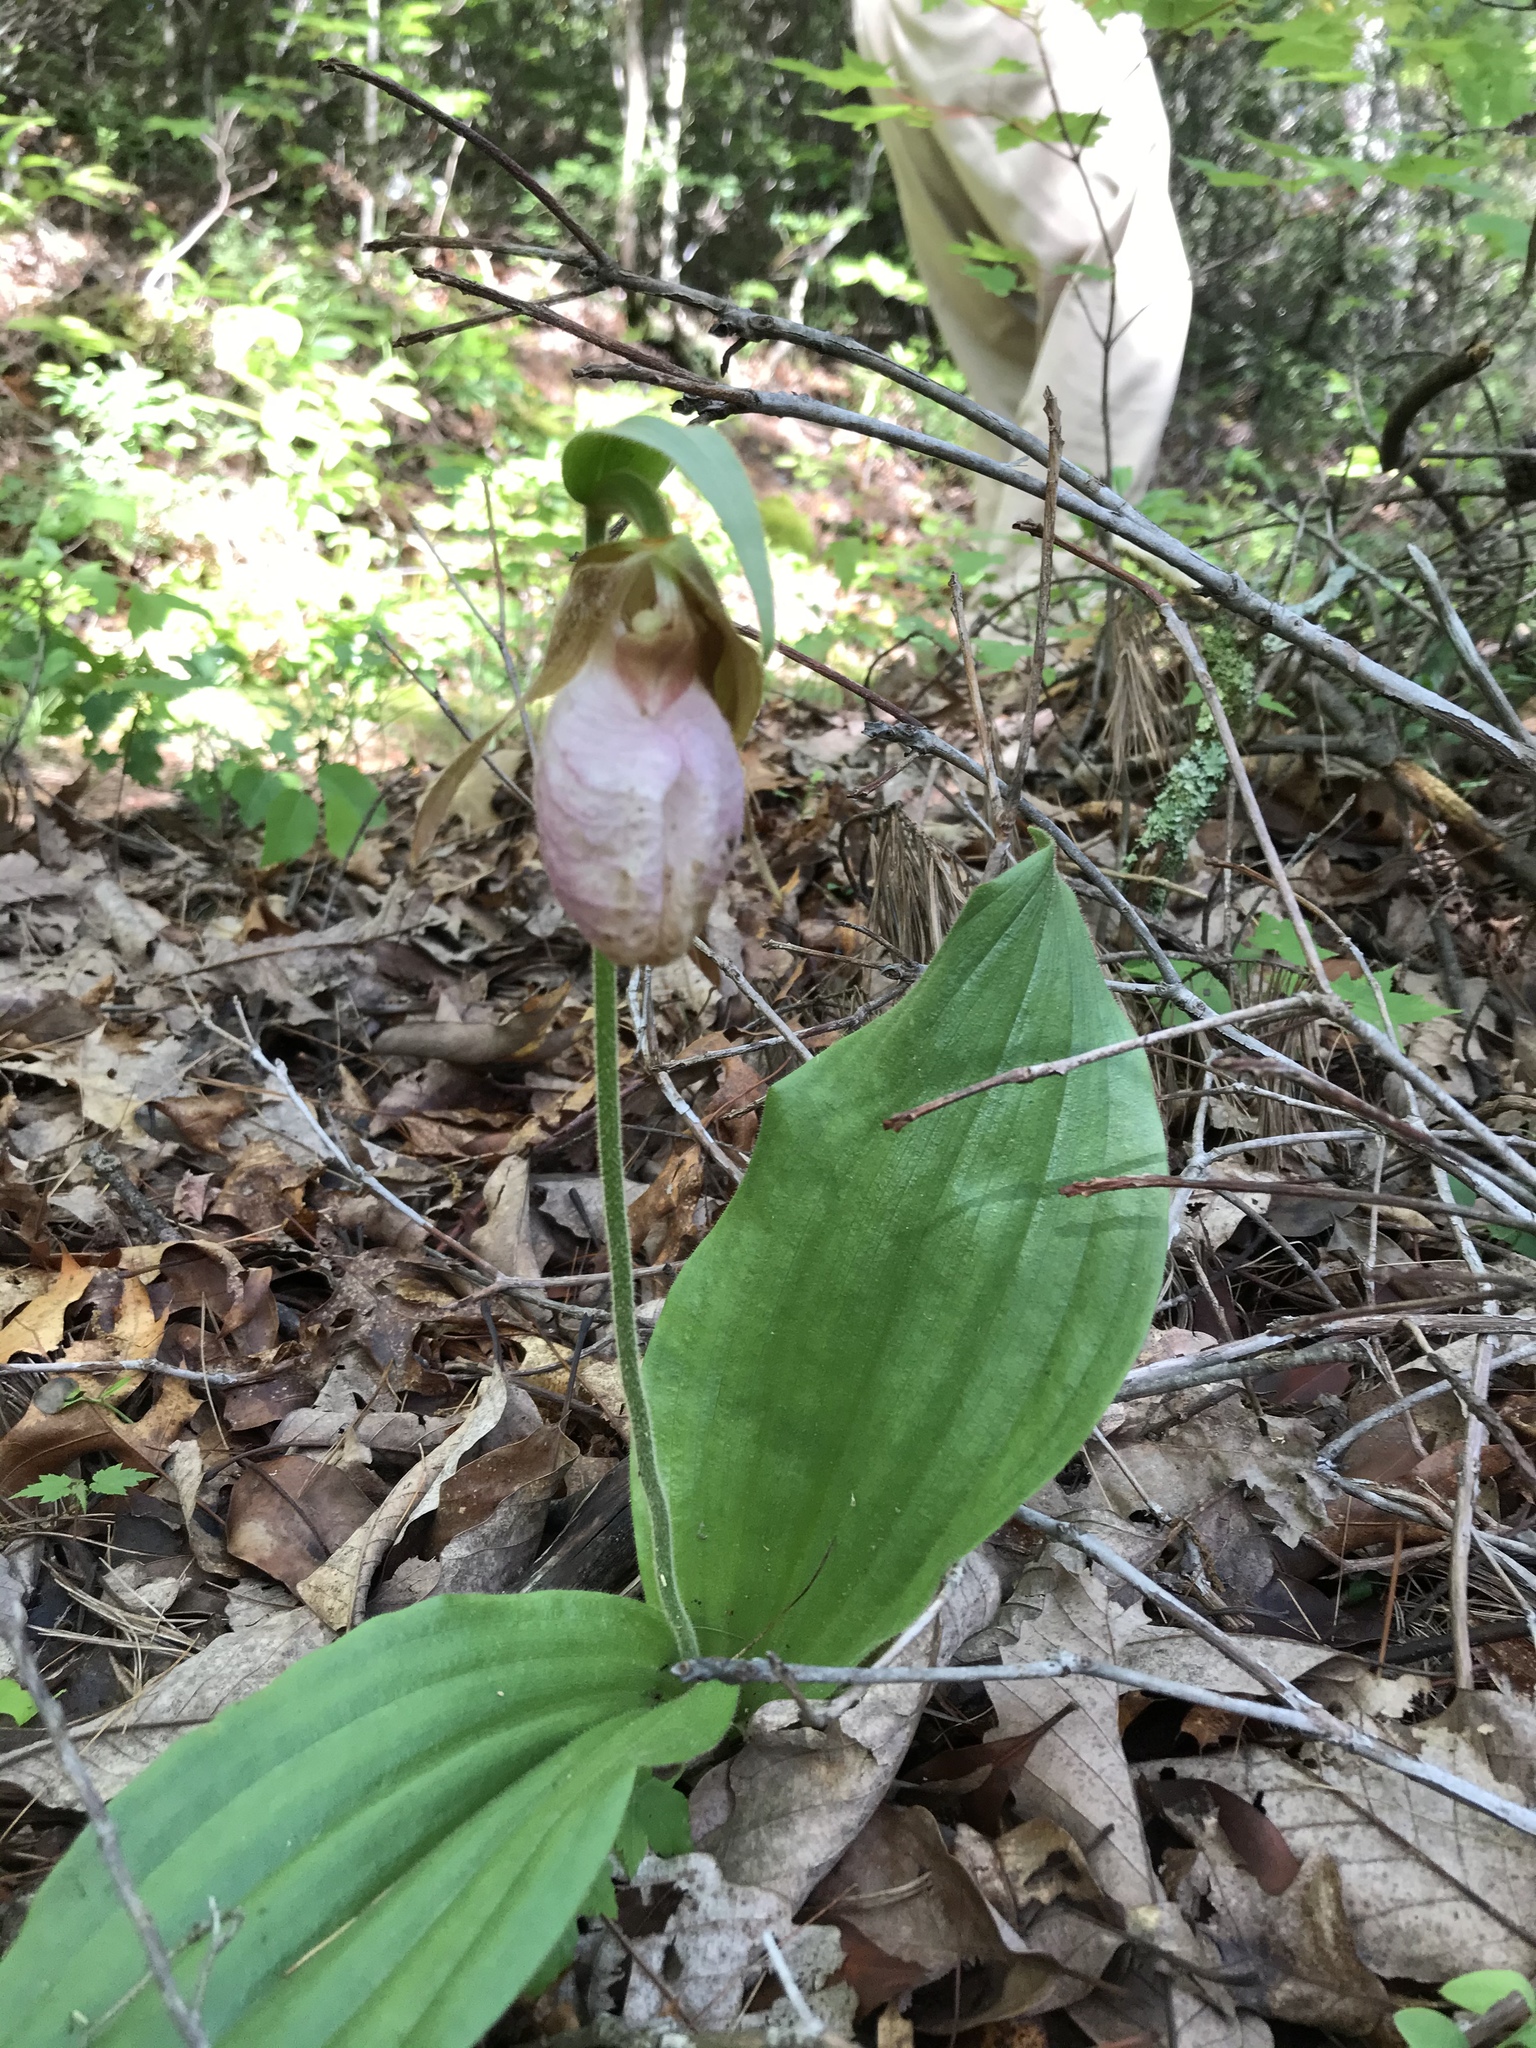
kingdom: Plantae
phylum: Tracheophyta
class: Liliopsida
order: Asparagales
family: Orchidaceae
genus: Cypripedium
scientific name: Cypripedium acaule
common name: Pink lady's-slipper
